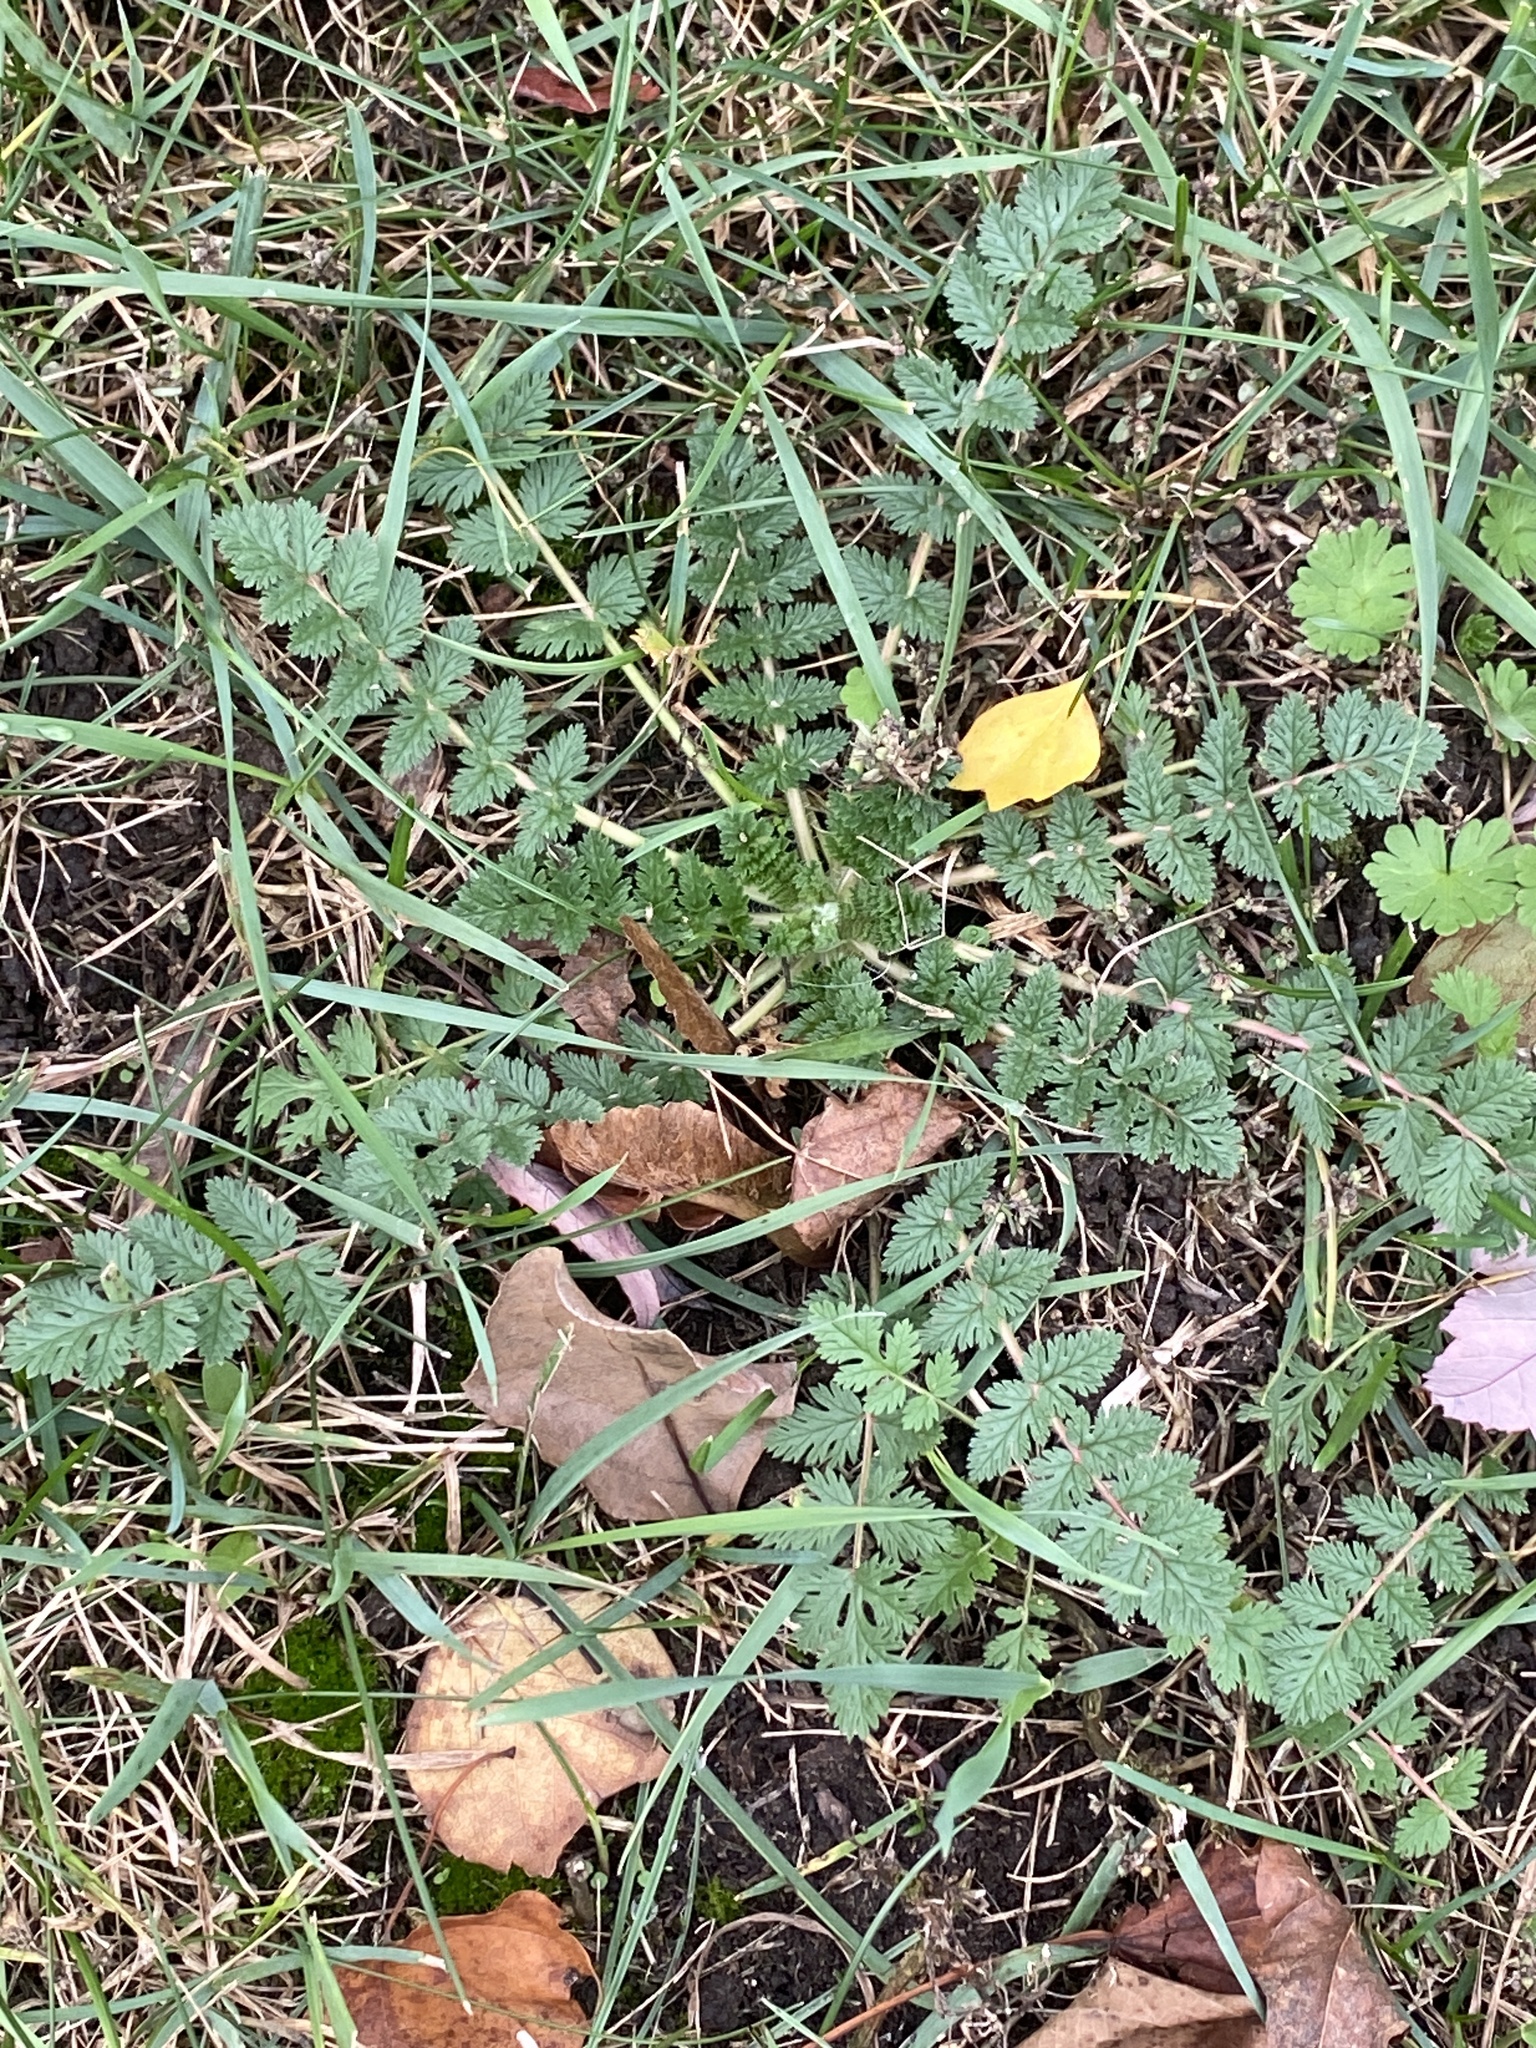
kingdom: Plantae
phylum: Tracheophyta
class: Magnoliopsida
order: Geraniales
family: Geraniaceae
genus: Erodium
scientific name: Erodium cicutarium
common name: Common stork's-bill
